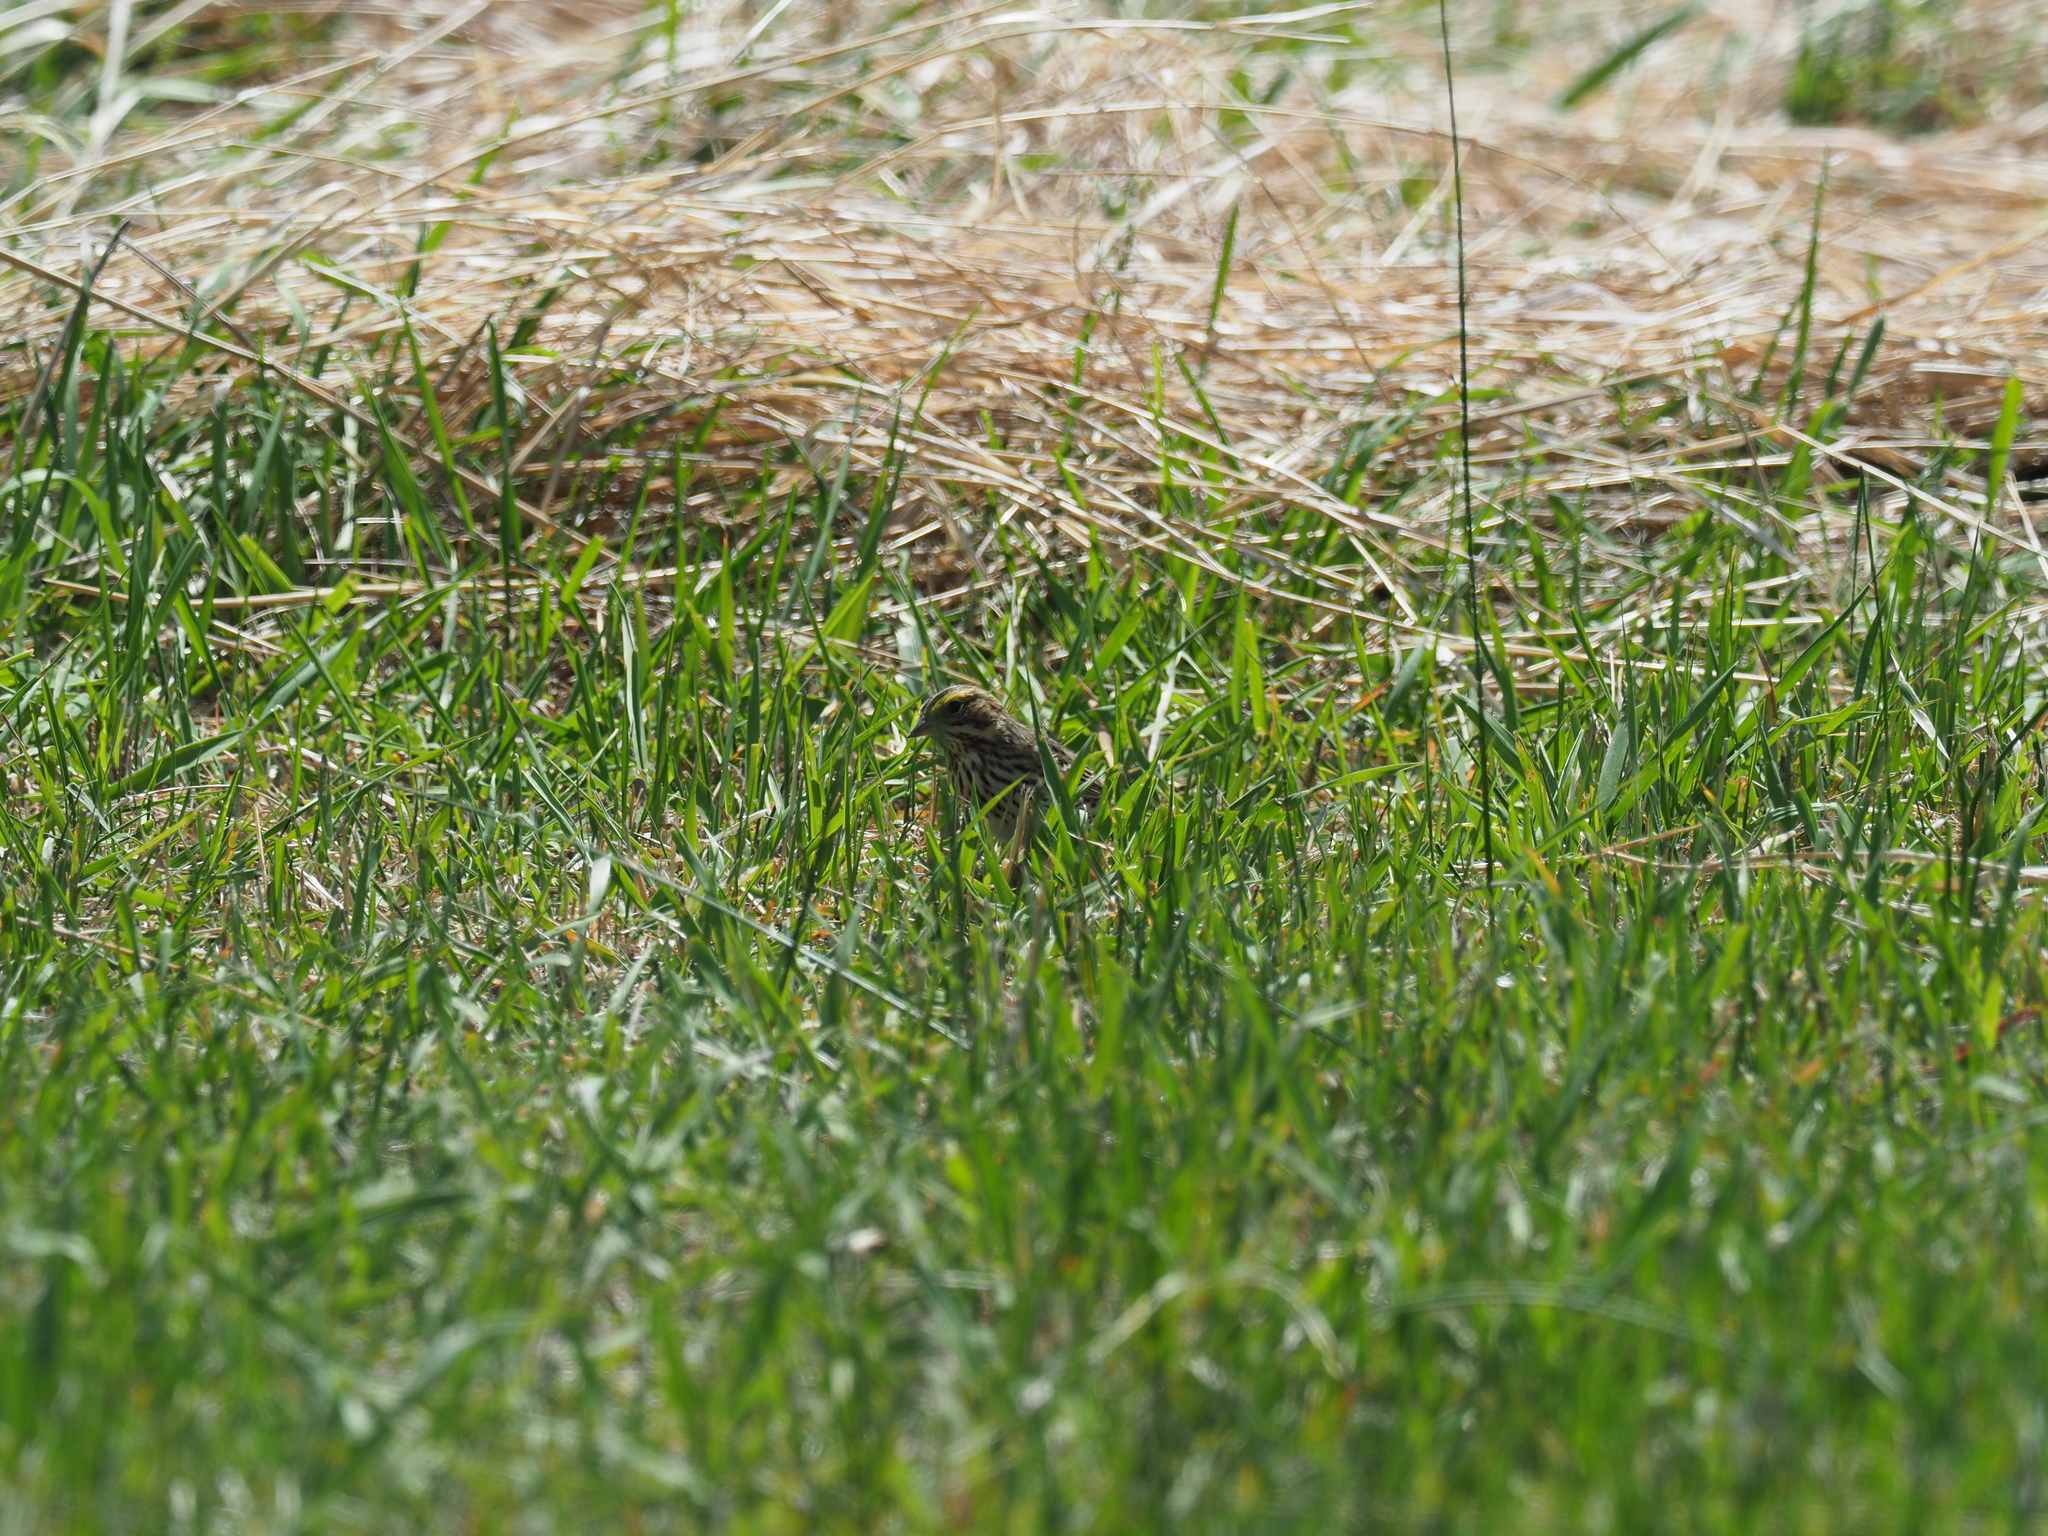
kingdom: Animalia
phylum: Chordata
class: Aves
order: Passeriformes
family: Passerellidae
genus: Passerculus
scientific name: Passerculus sandwichensis
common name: Savannah sparrow
